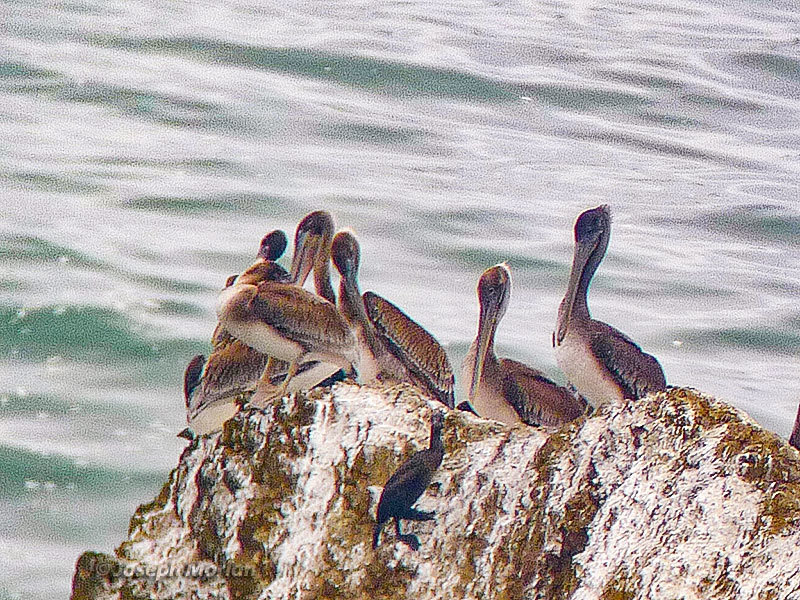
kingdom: Animalia
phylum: Chordata
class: Aves
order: Pelecaniformes
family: Pelecanidae
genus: Pelecanus
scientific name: Pelecanus occidentalis
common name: Brown pelican
